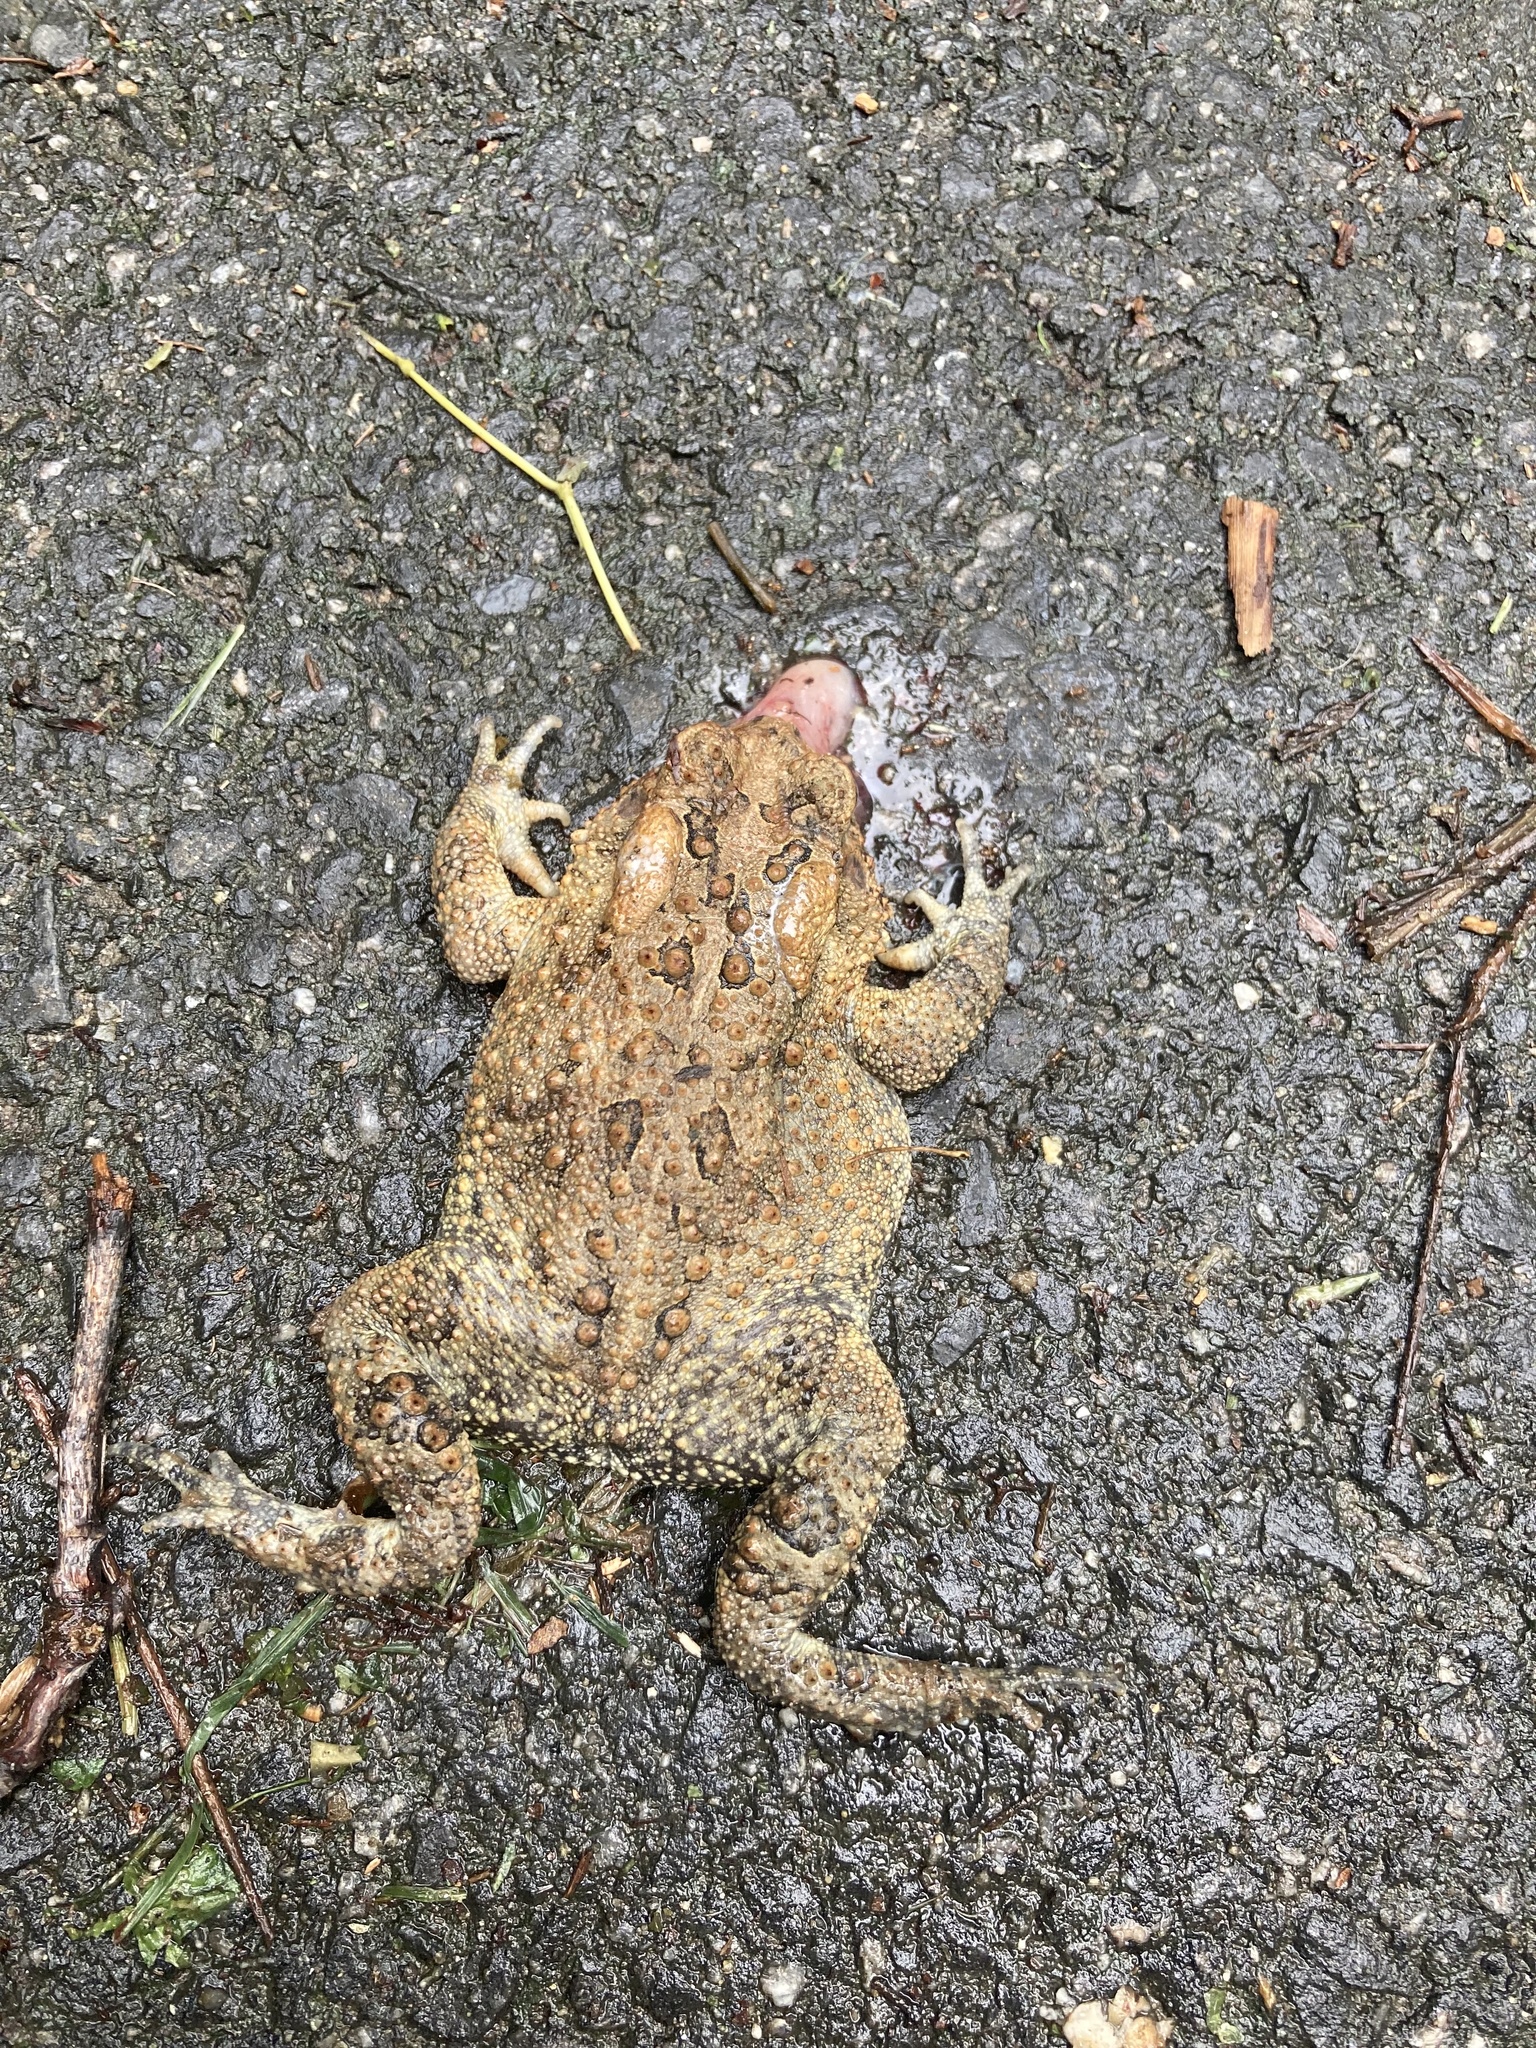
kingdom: Animalia
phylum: Chordata
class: Amphibia
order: Anura
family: Bufonidae
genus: Anaxyrus
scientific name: Anaxyrus americanus
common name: American toad
